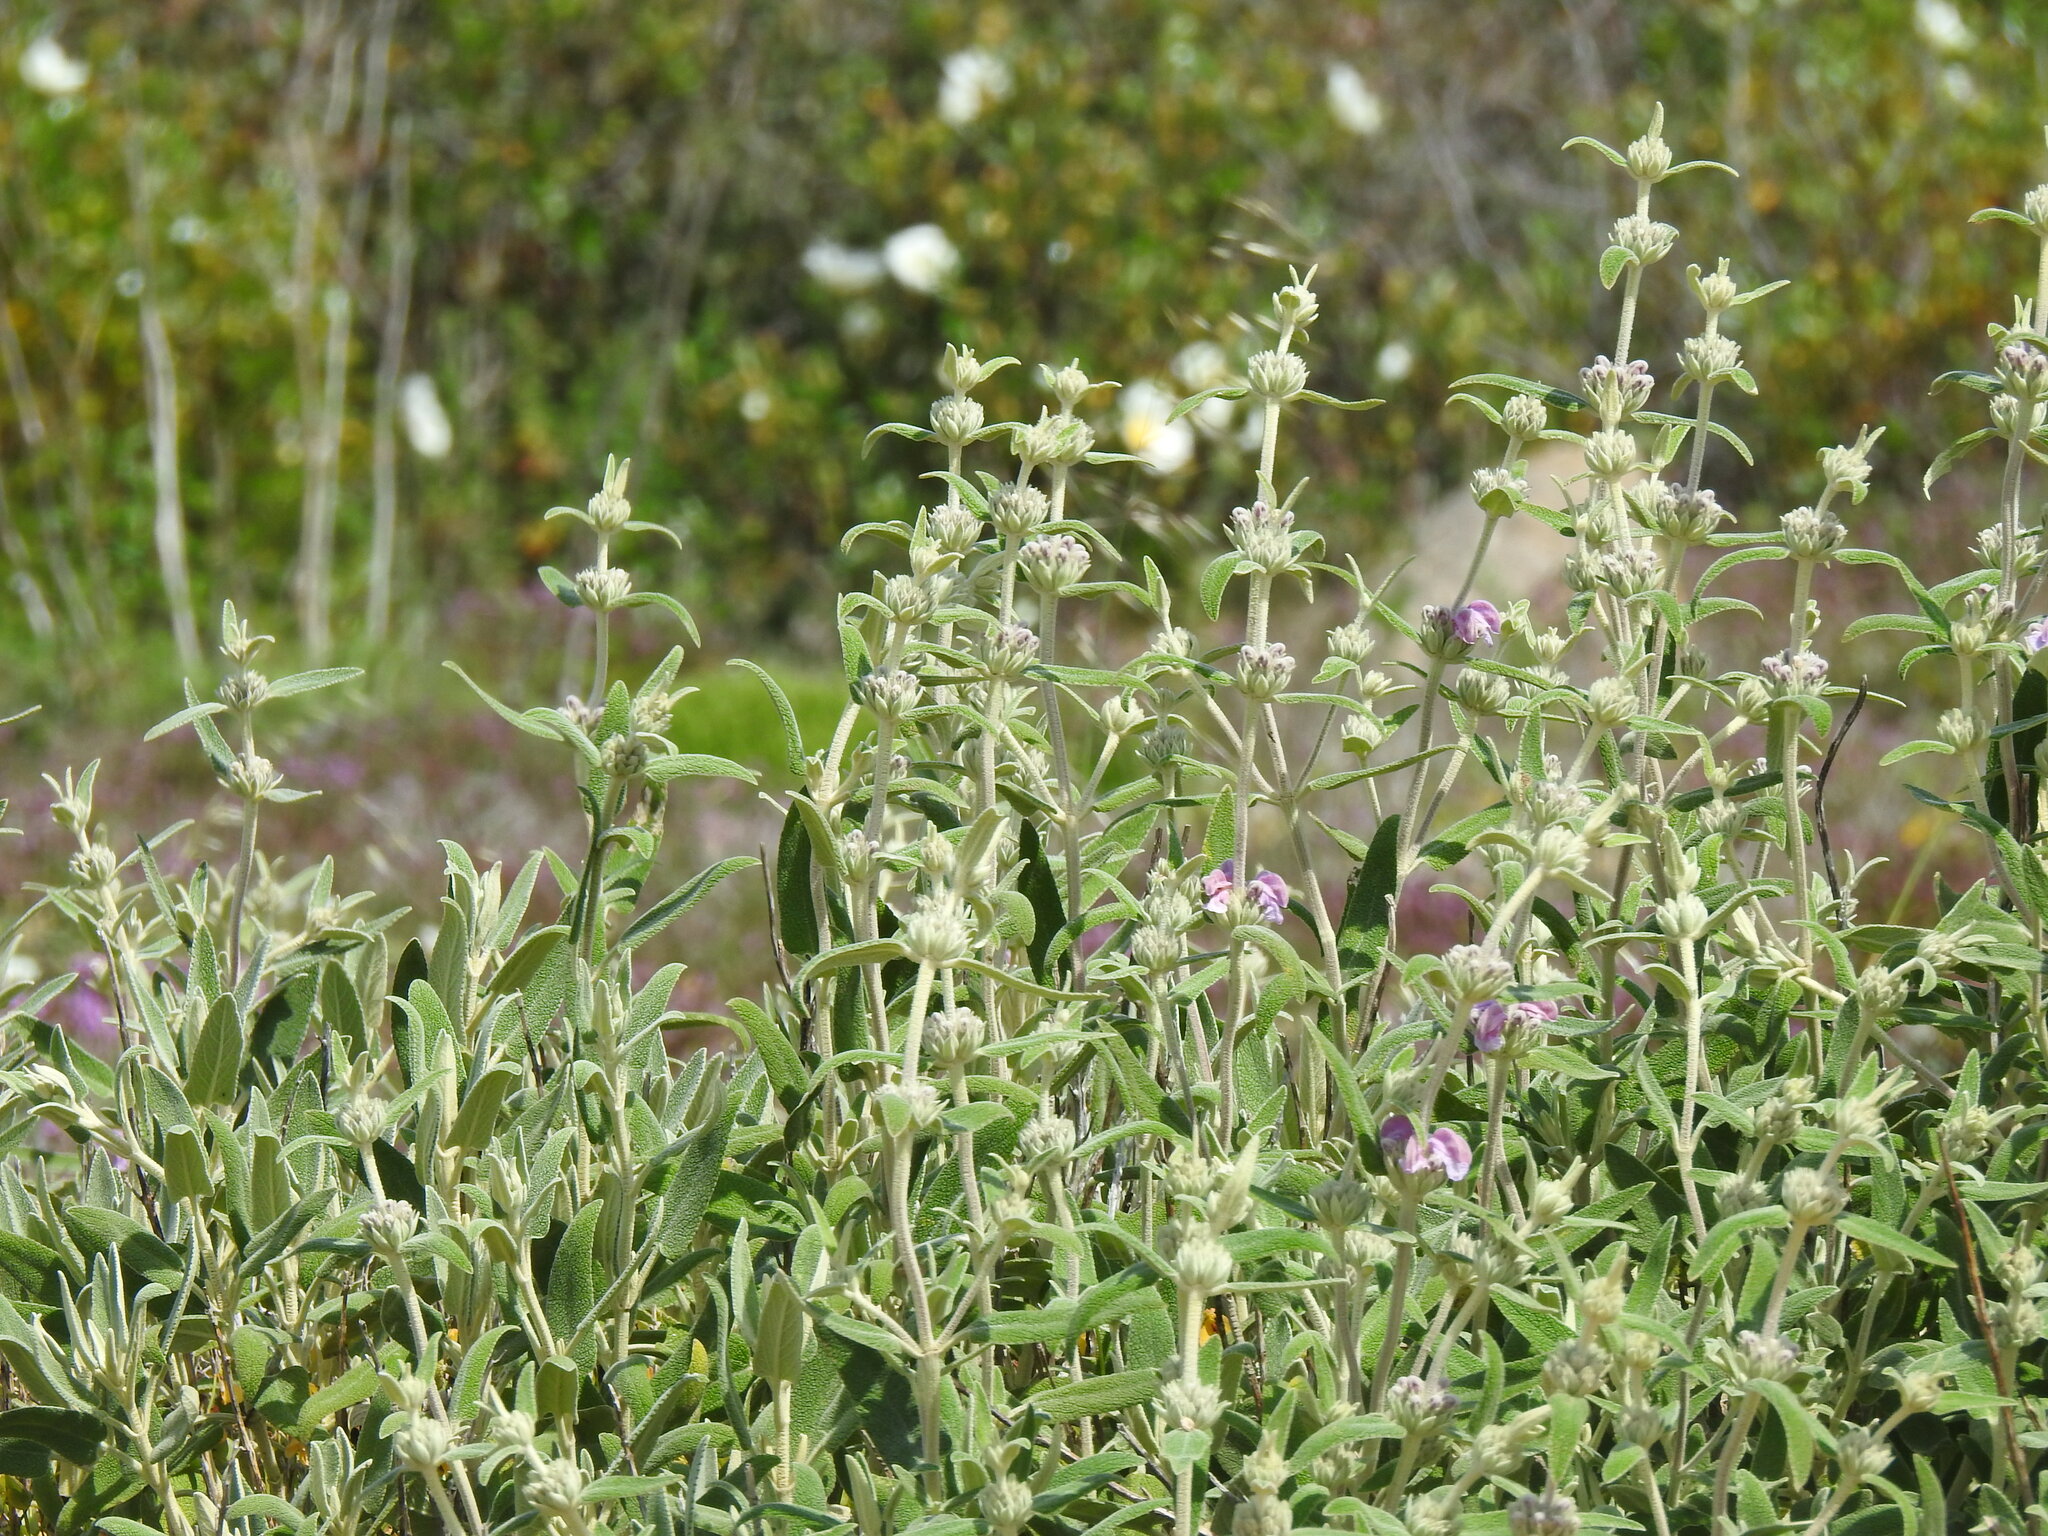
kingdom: Plantae
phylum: Tracheophyta
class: Magnoliopsida
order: Lamiales
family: Lamiaceae
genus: Phlomis
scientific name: Phlomis purpurea
